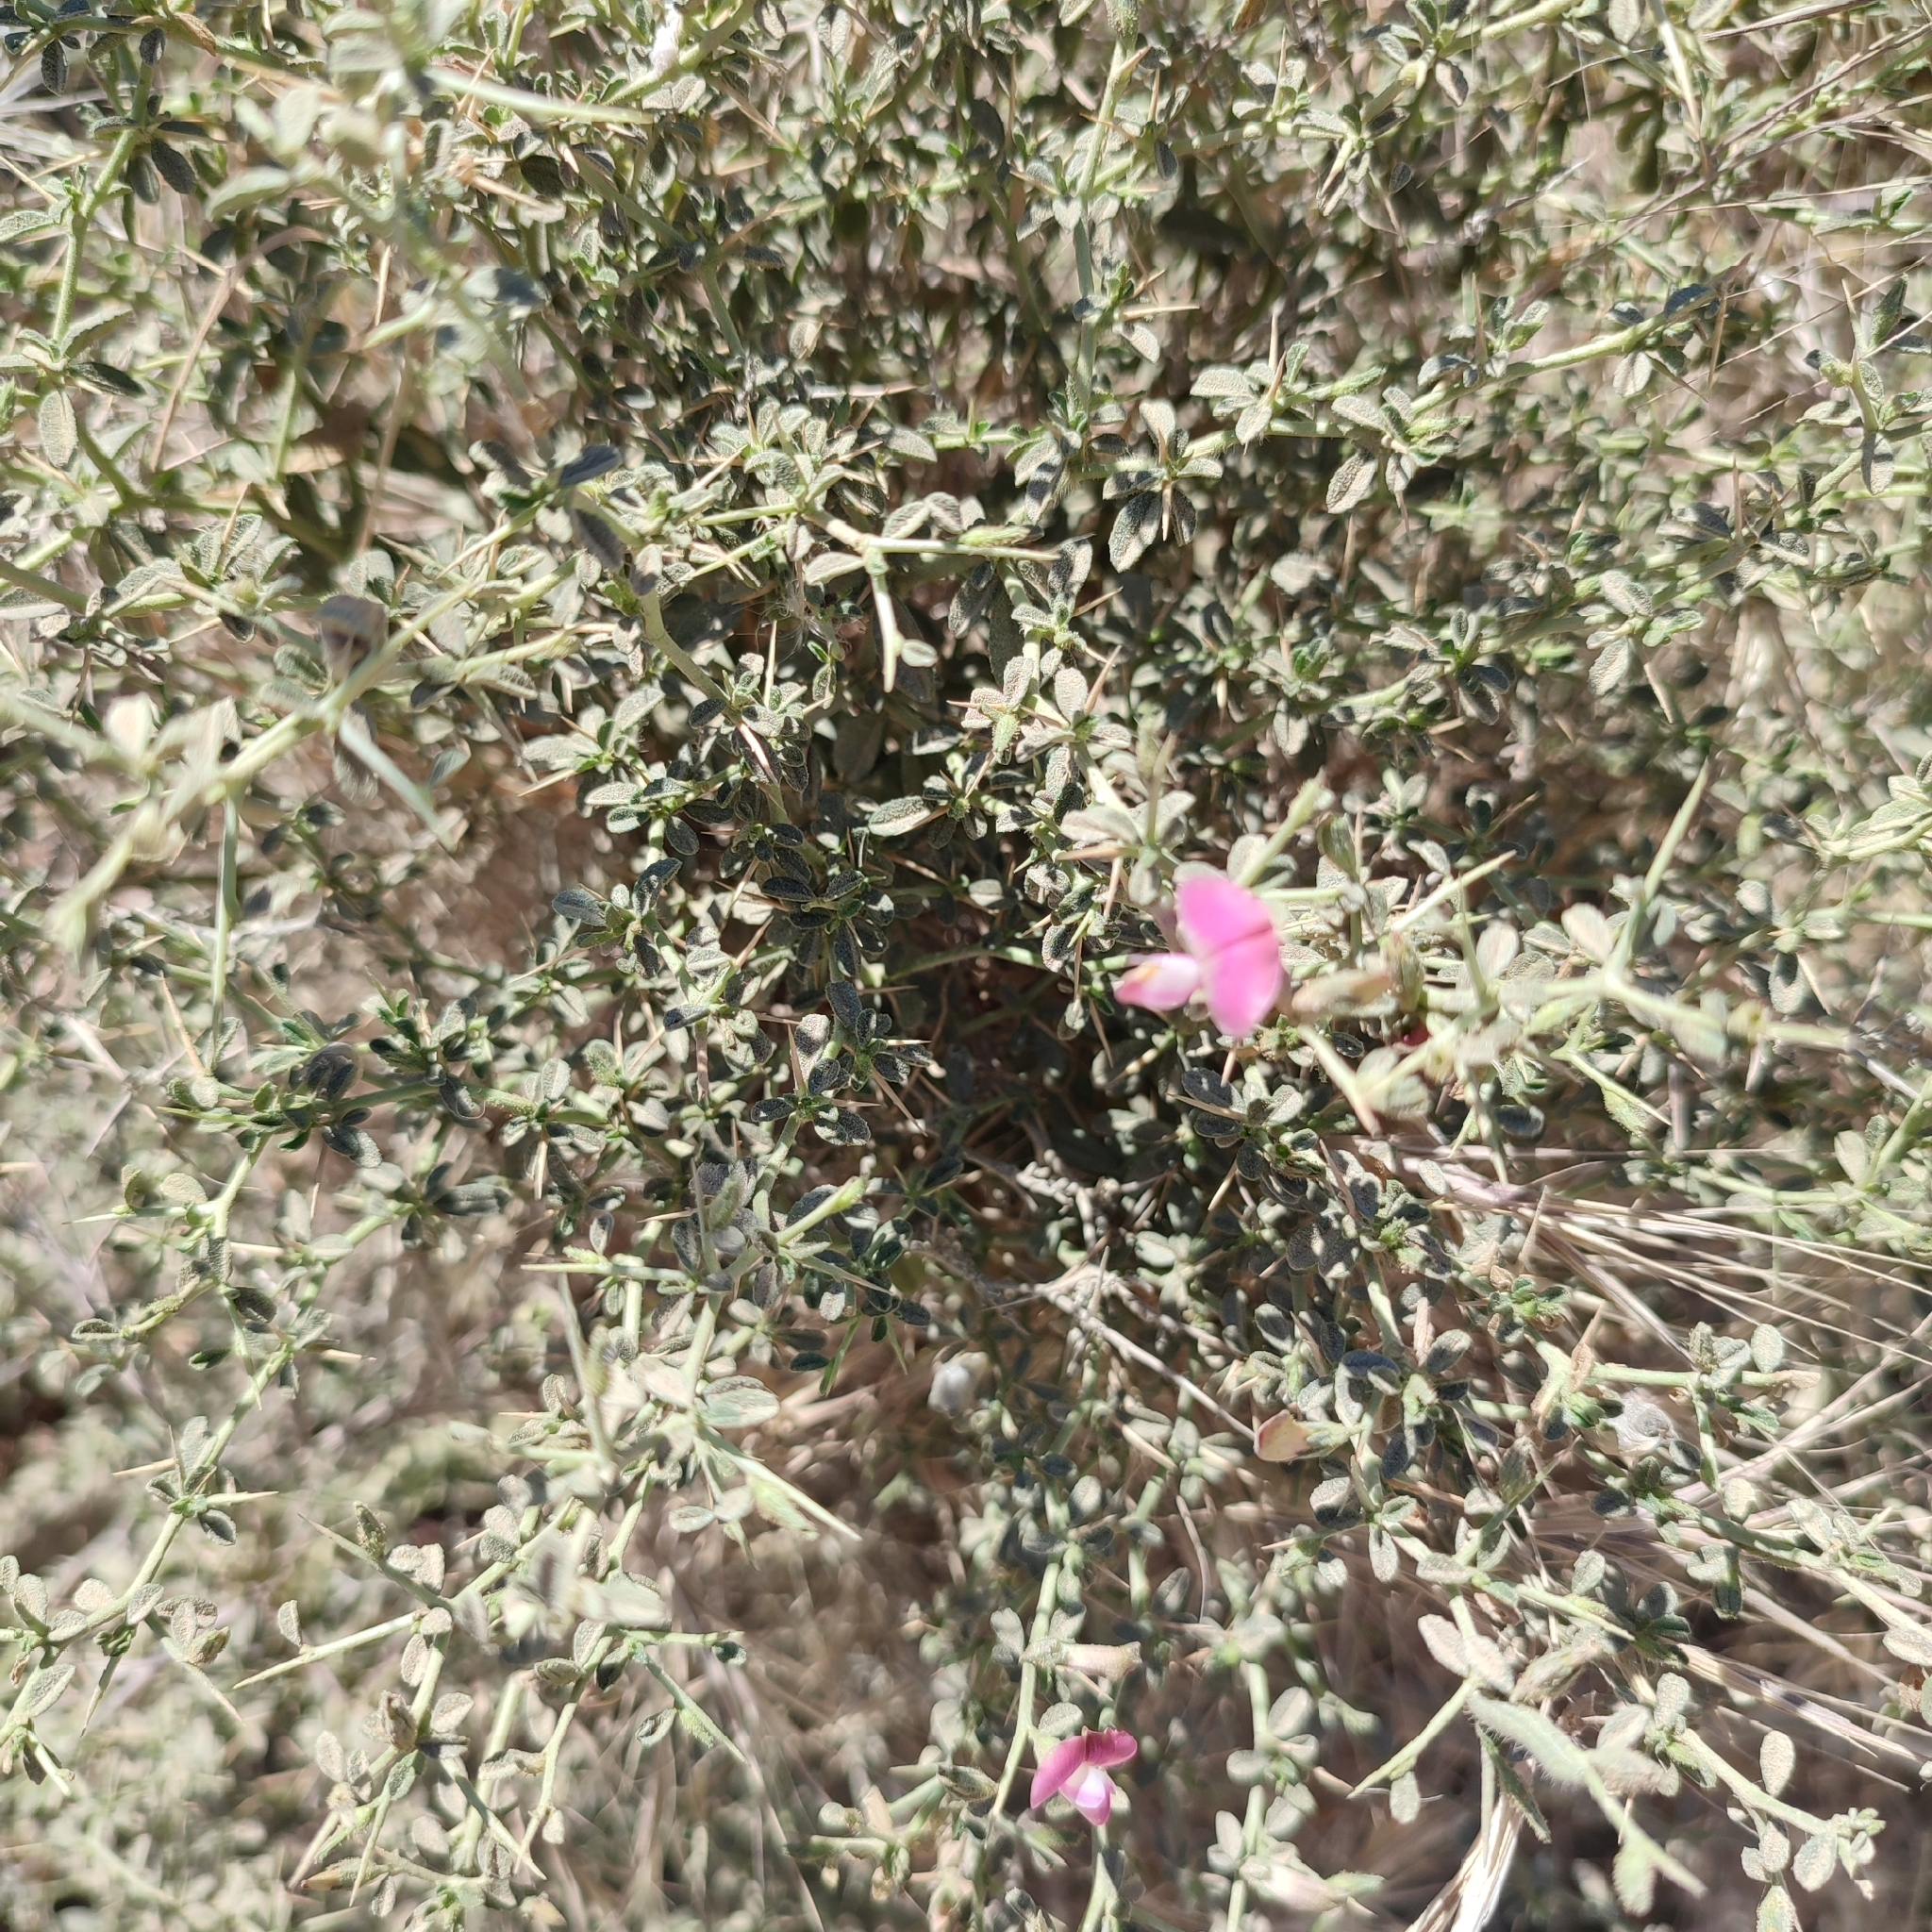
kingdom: Plantae
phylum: Tracheophyta
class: Magnoliopsida
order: Fabales
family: Fabaceae
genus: Ononis
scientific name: Ononis spinosa
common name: Spiny restharrow
